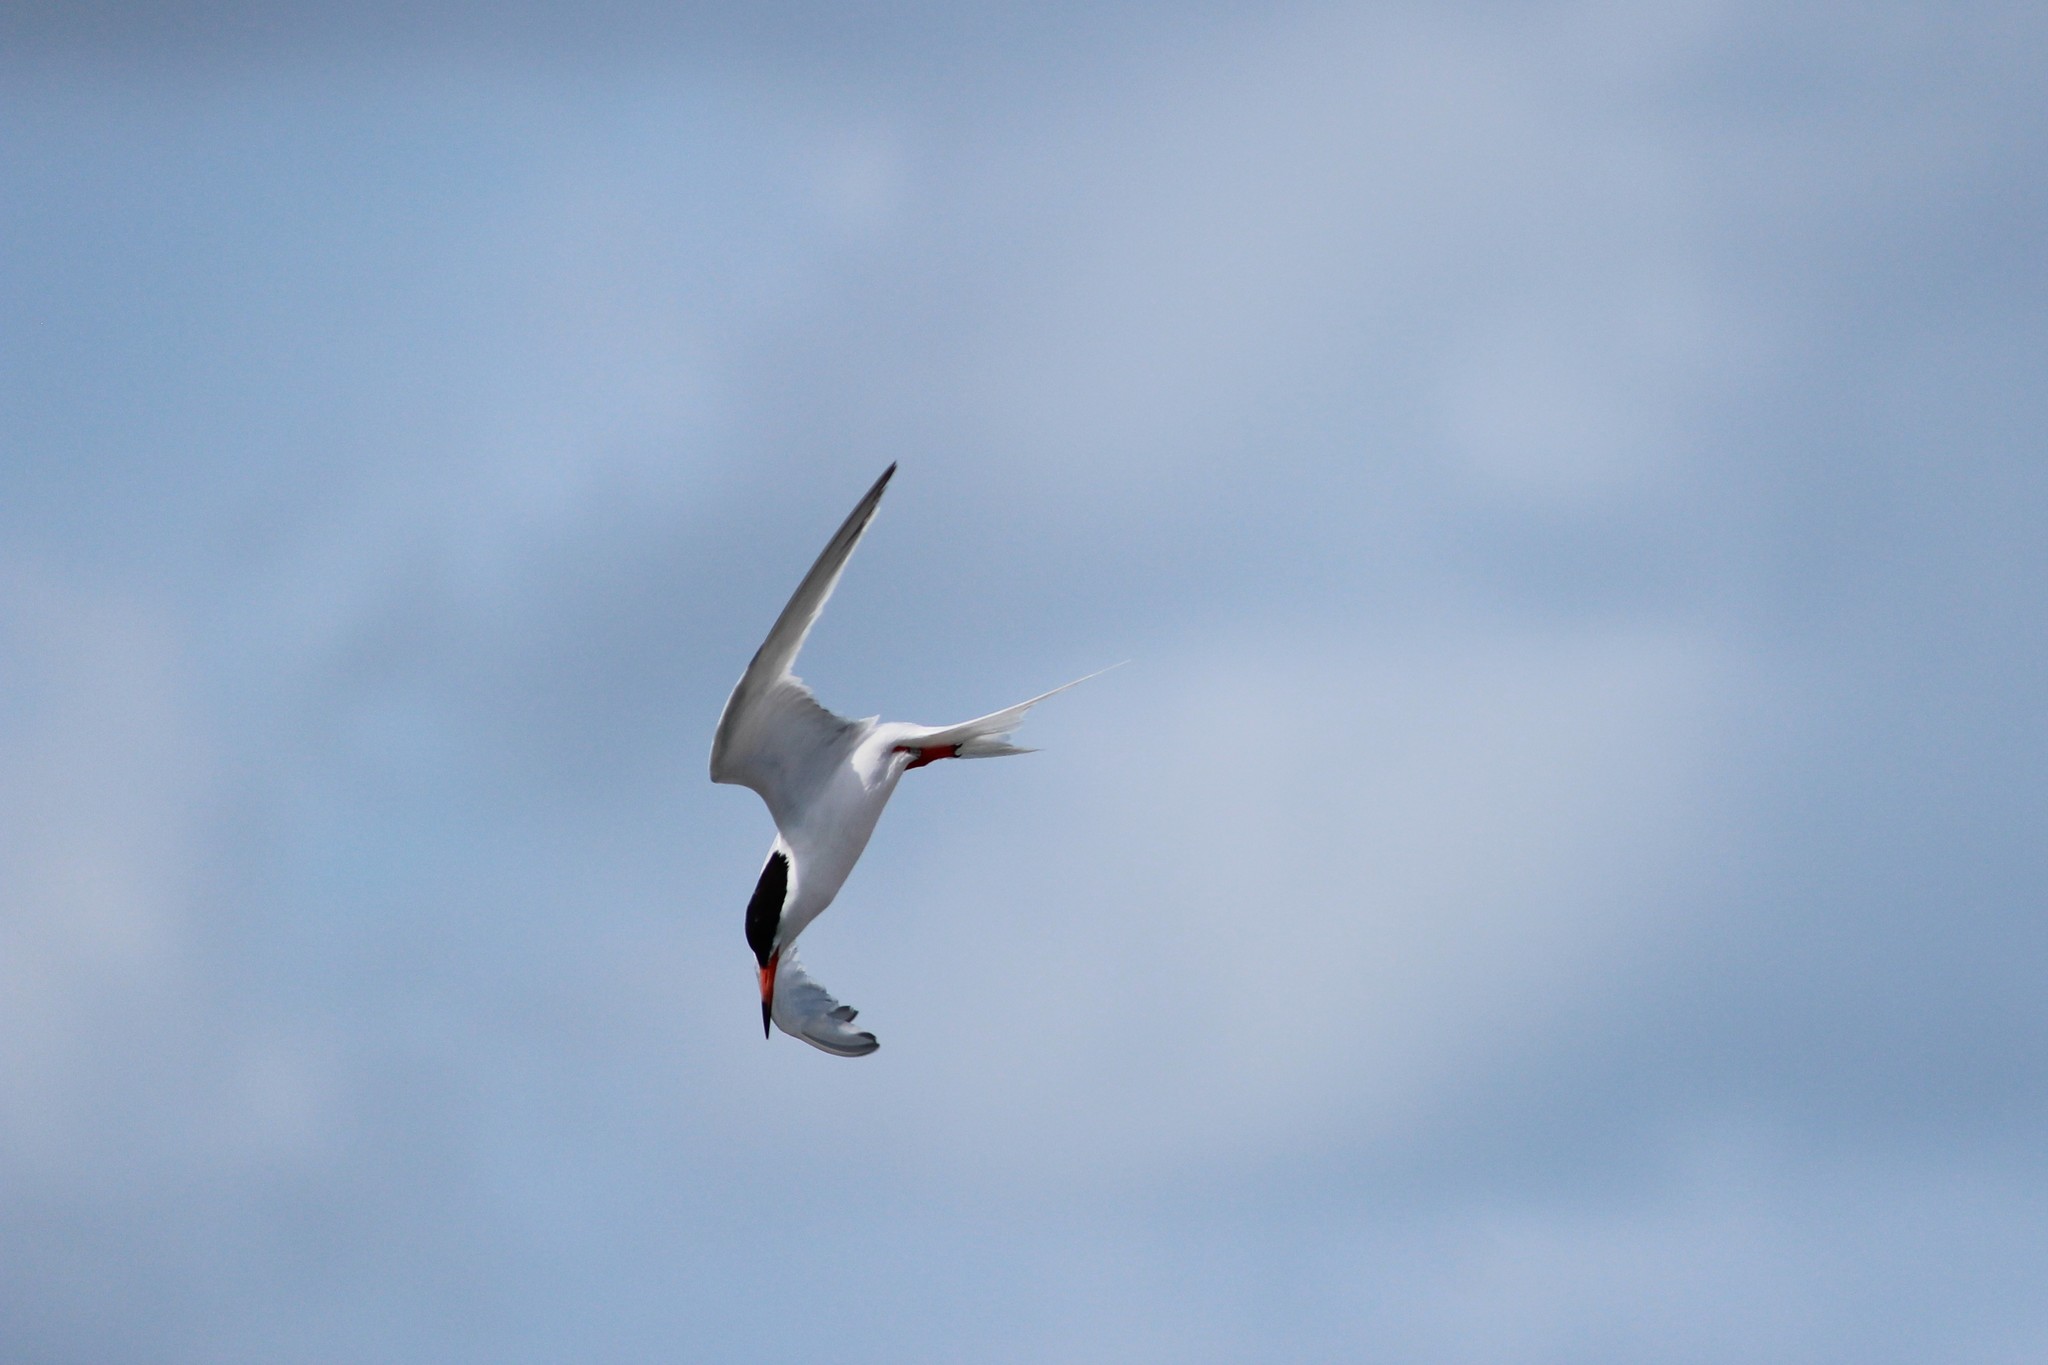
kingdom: Animalia
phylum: Chordata
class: Aves
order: Charadriiformes
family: Laridae
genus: Sterna
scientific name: Sterna dougallii
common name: Roseate tern
